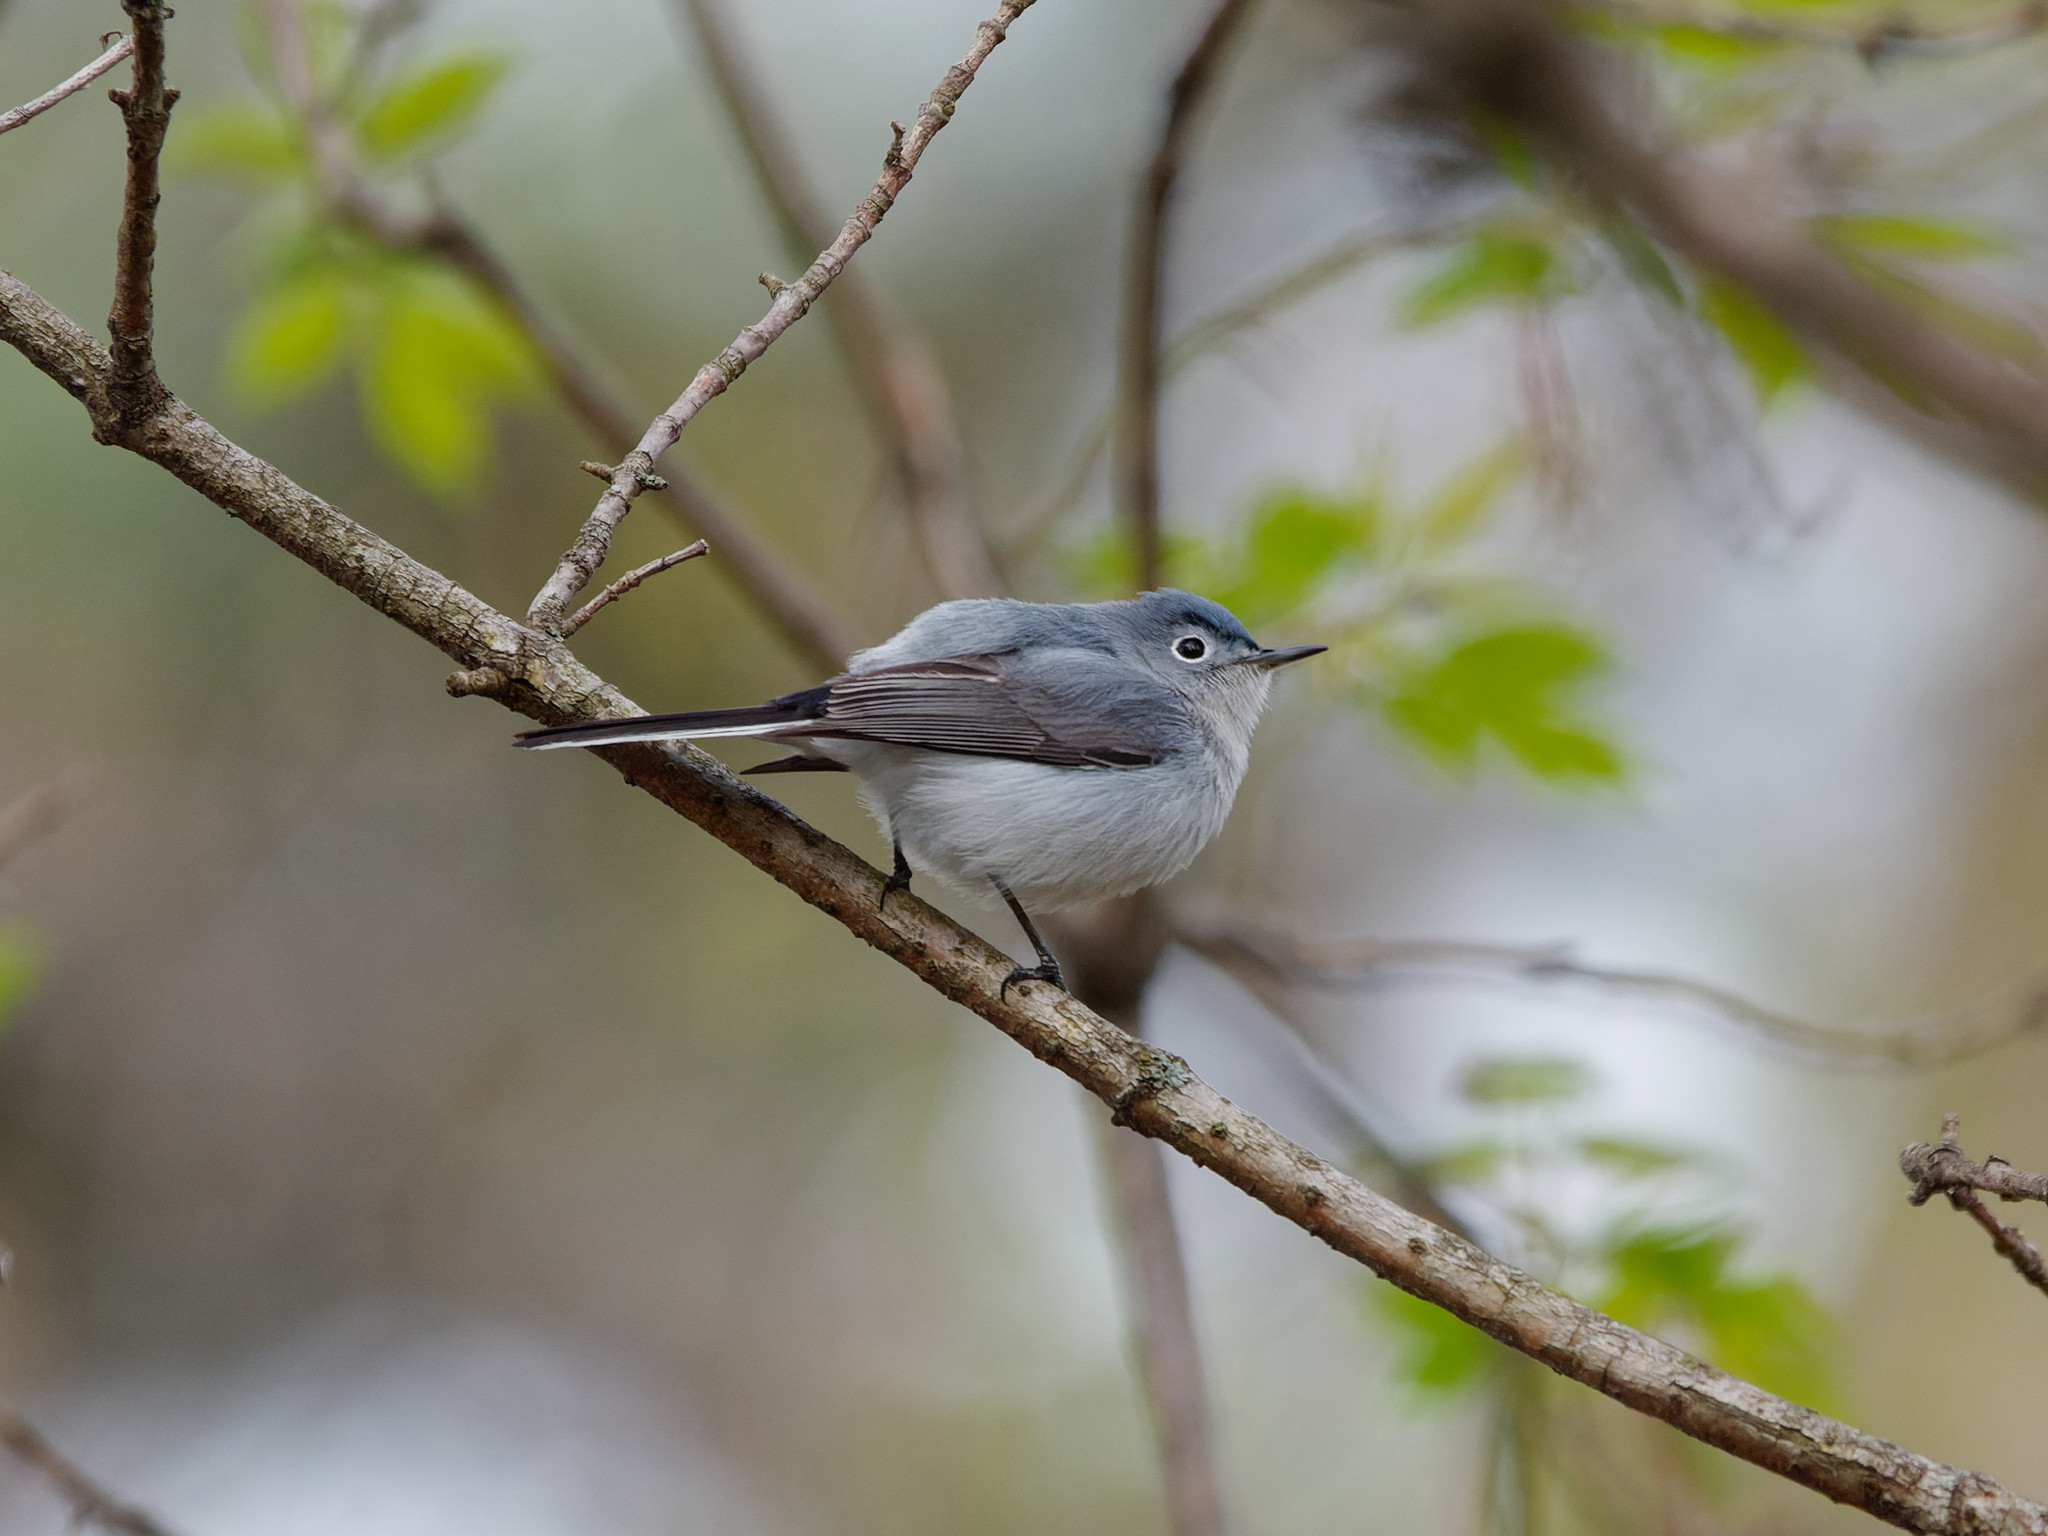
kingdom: Animalia
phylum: Chordata
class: Aves
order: Passeriformes
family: Polioptilidae
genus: Polioptila
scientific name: Polioptila caerulea
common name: Blue-gray gnatcatcher
